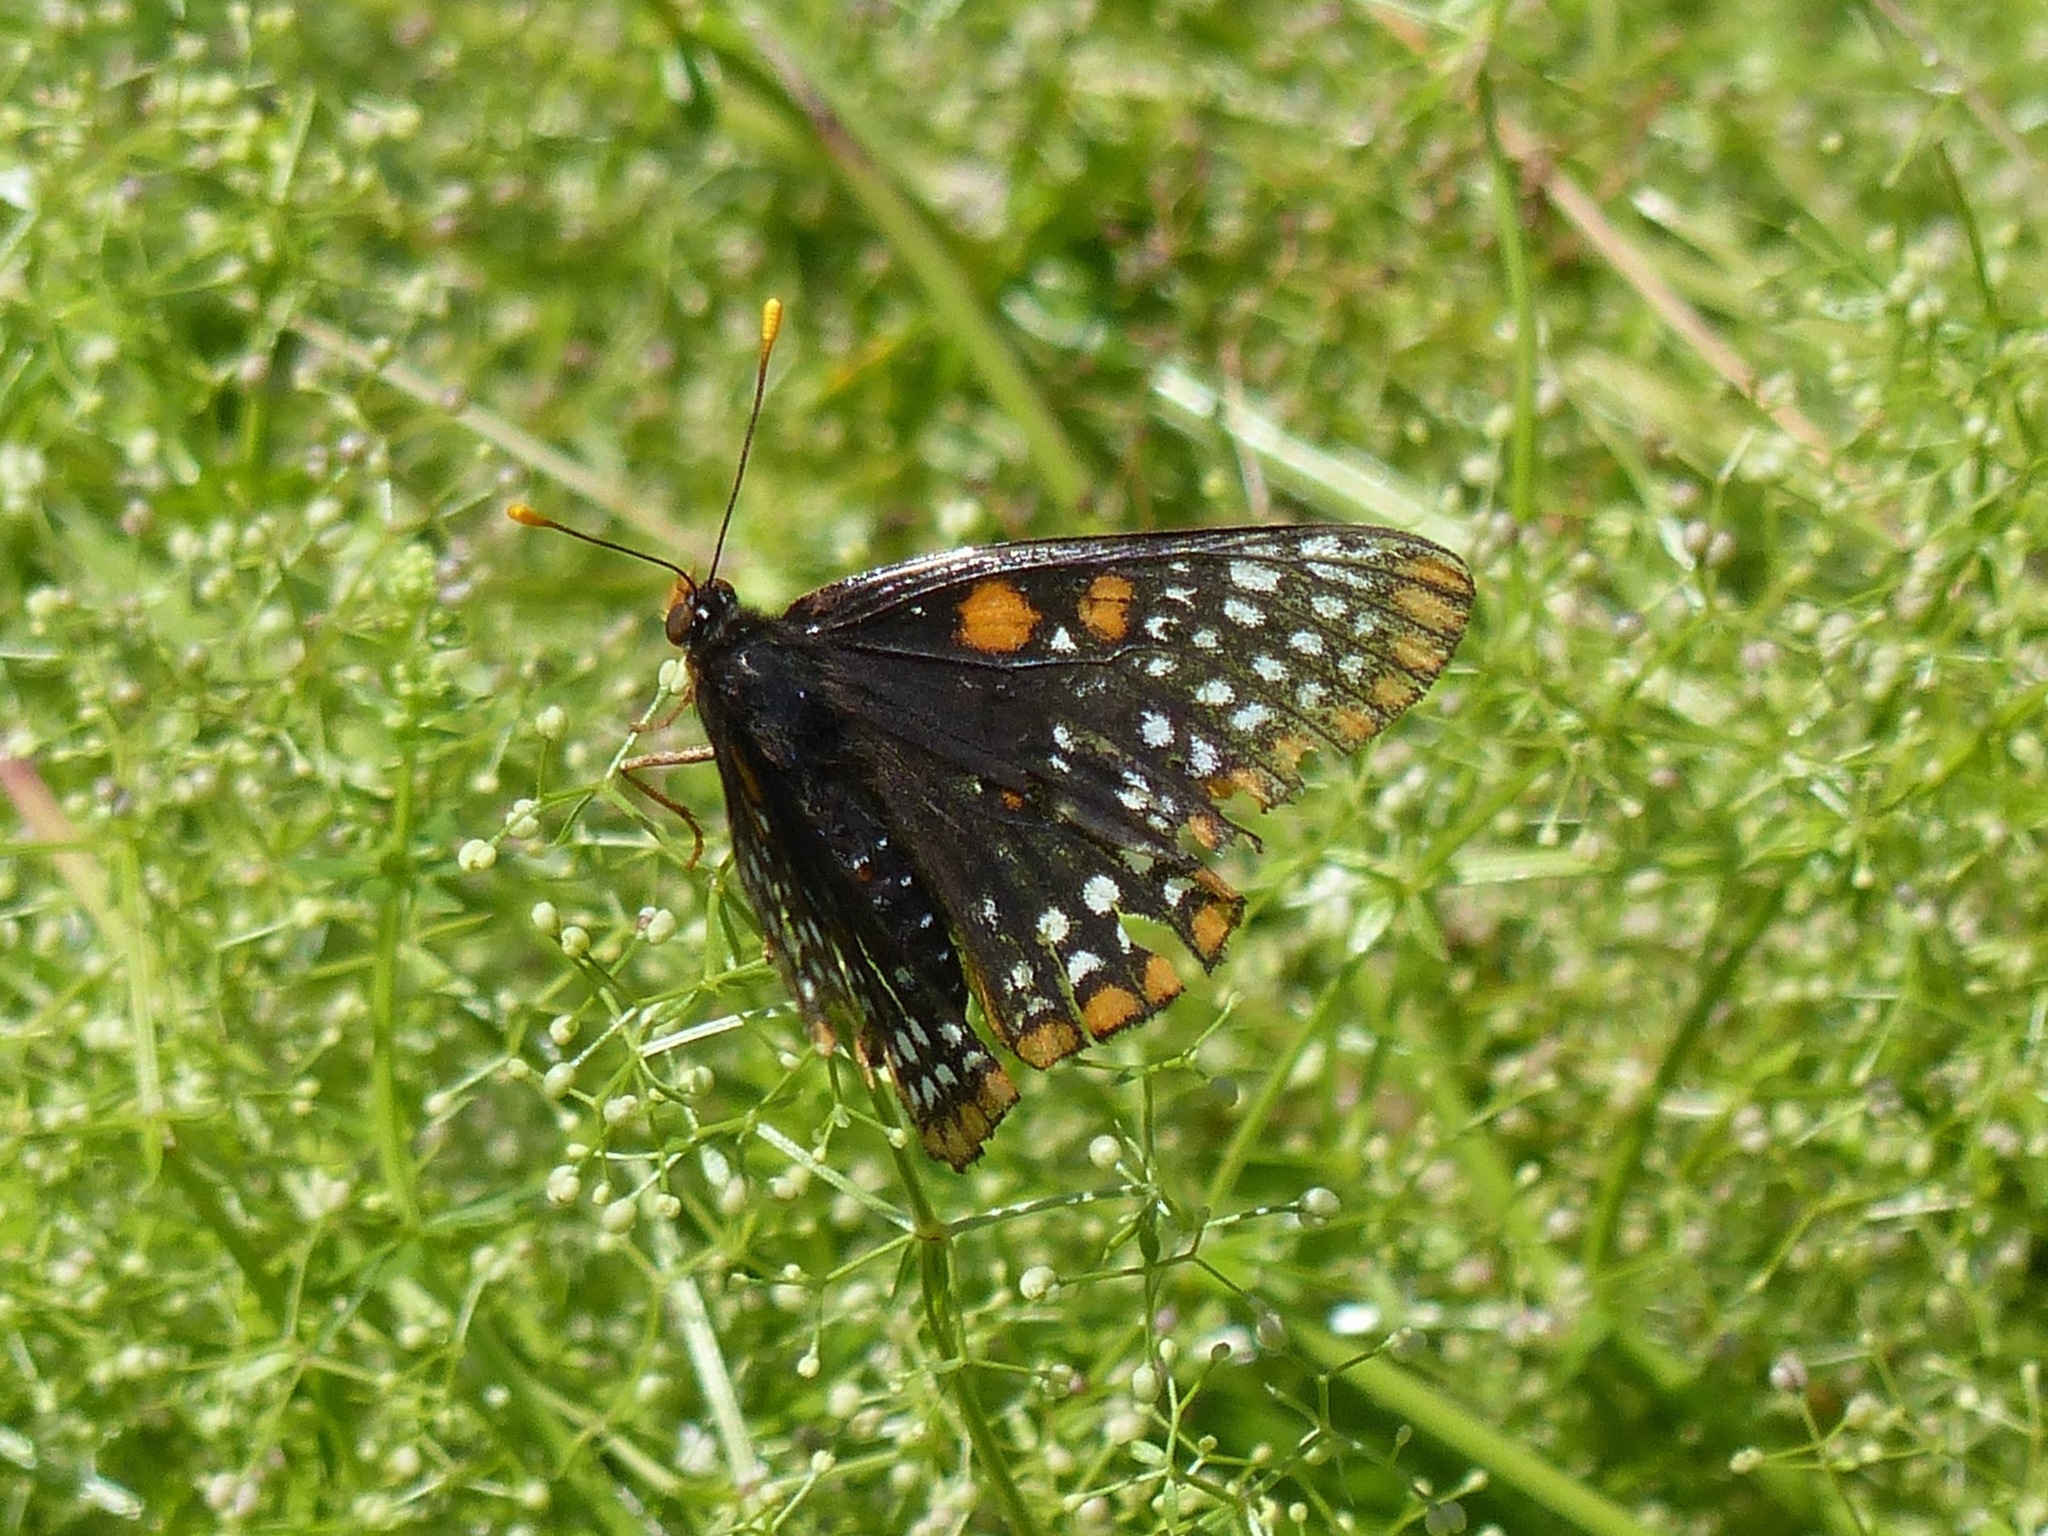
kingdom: Animalia
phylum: Arthropoda
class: Insecta
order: Lepidoptera
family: Nymphalidae
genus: Euphydryas
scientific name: Euphydryas phaeton
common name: Baltimore checkerspot
